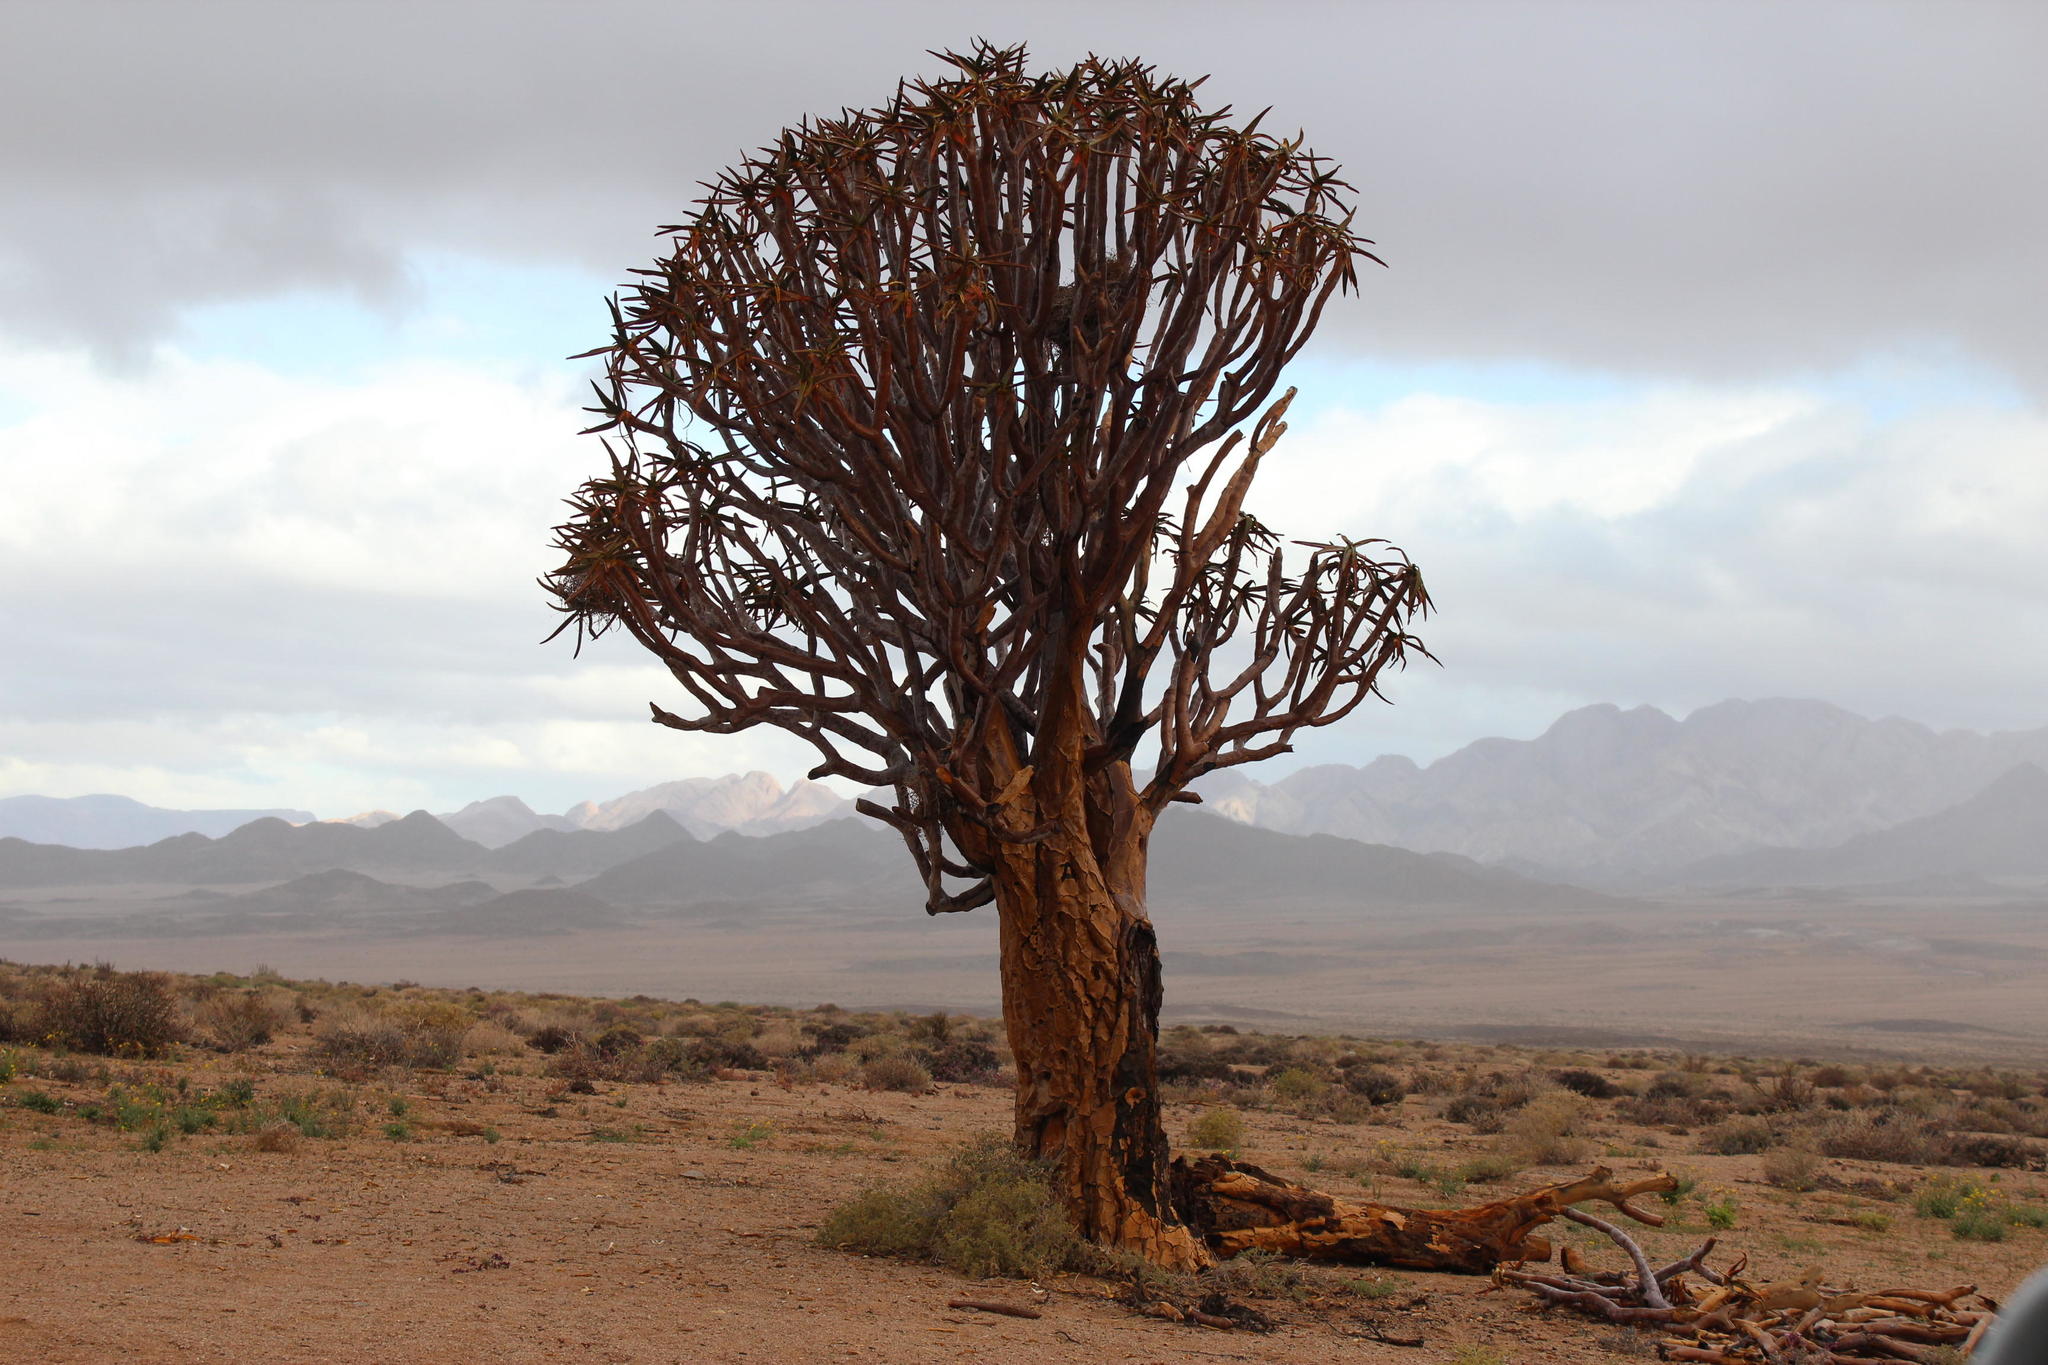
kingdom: Plantae
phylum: Tracheophyta
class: Liliopsida
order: Asparagales
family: Asphodelaceae
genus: Aloidendron
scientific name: Aloidendron dichotomum
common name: Quiver tree
